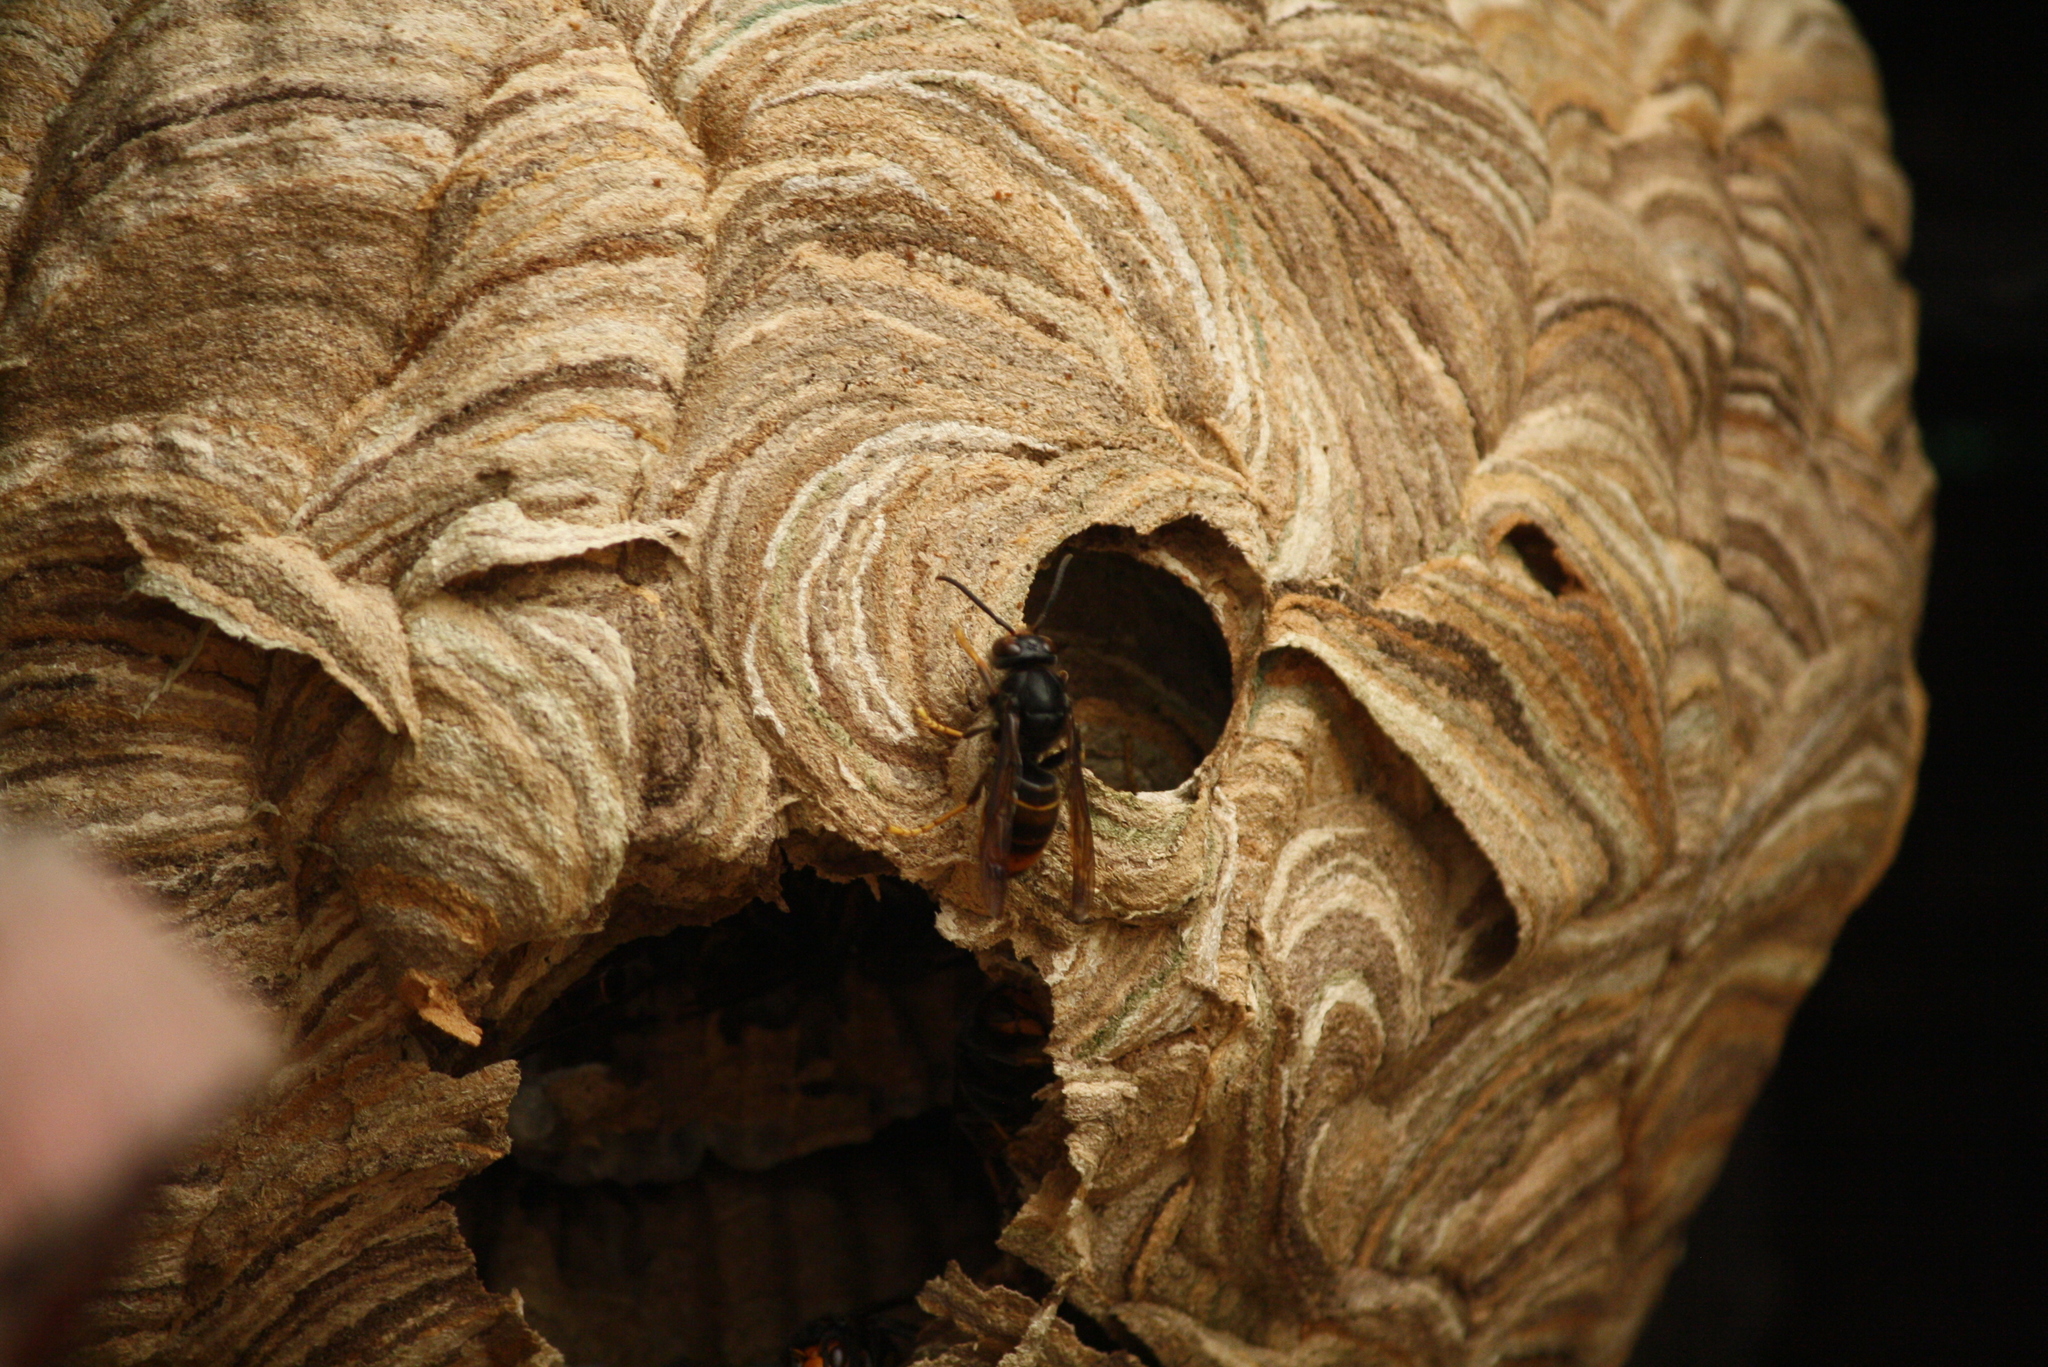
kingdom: Animalia
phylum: Arthropoda
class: Insecta
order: Hymenoptera
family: Vespidae
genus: Vespa
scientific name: Vespa velutina
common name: Asian hornet
